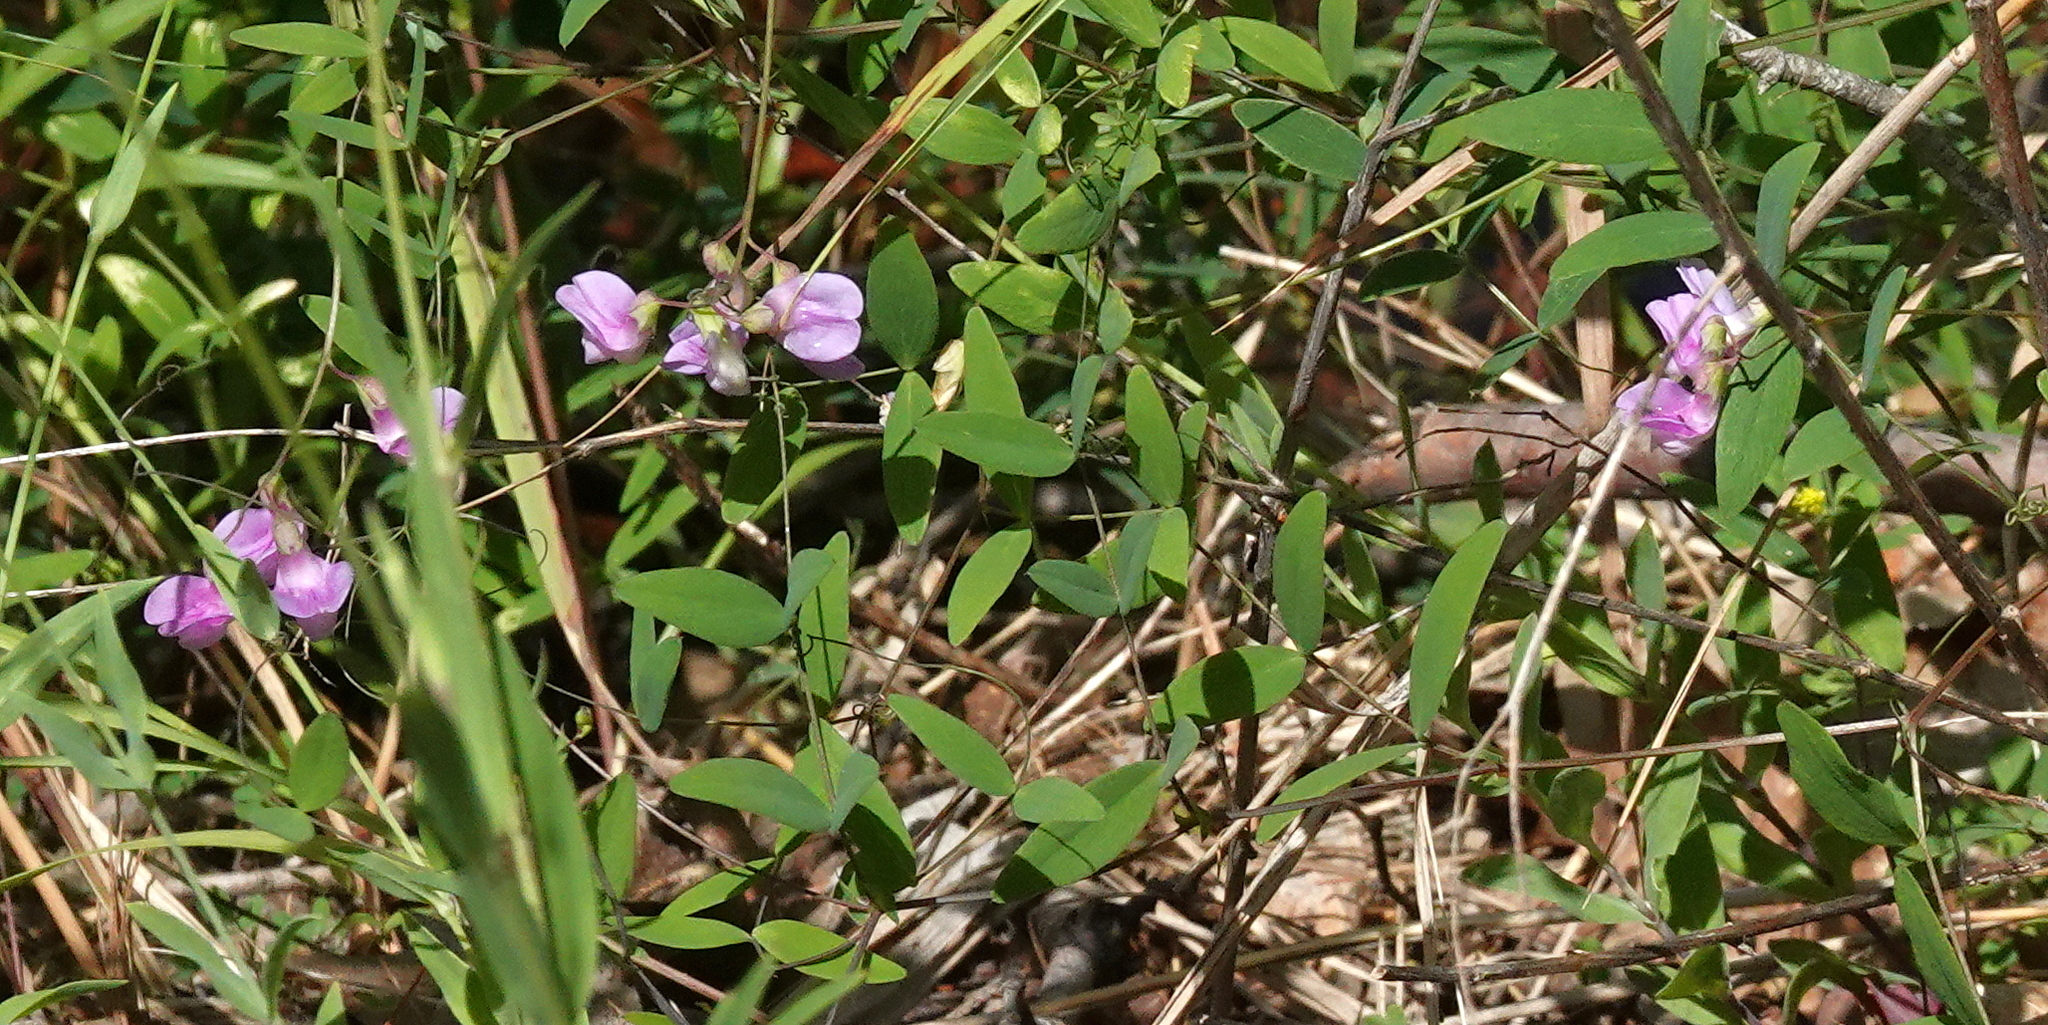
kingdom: Plantae
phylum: Tracheophyta
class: Magnoliopsida
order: Fabales
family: Fabaceae
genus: Lathyrus
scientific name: Lathyrus palustris
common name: Marsh pea
